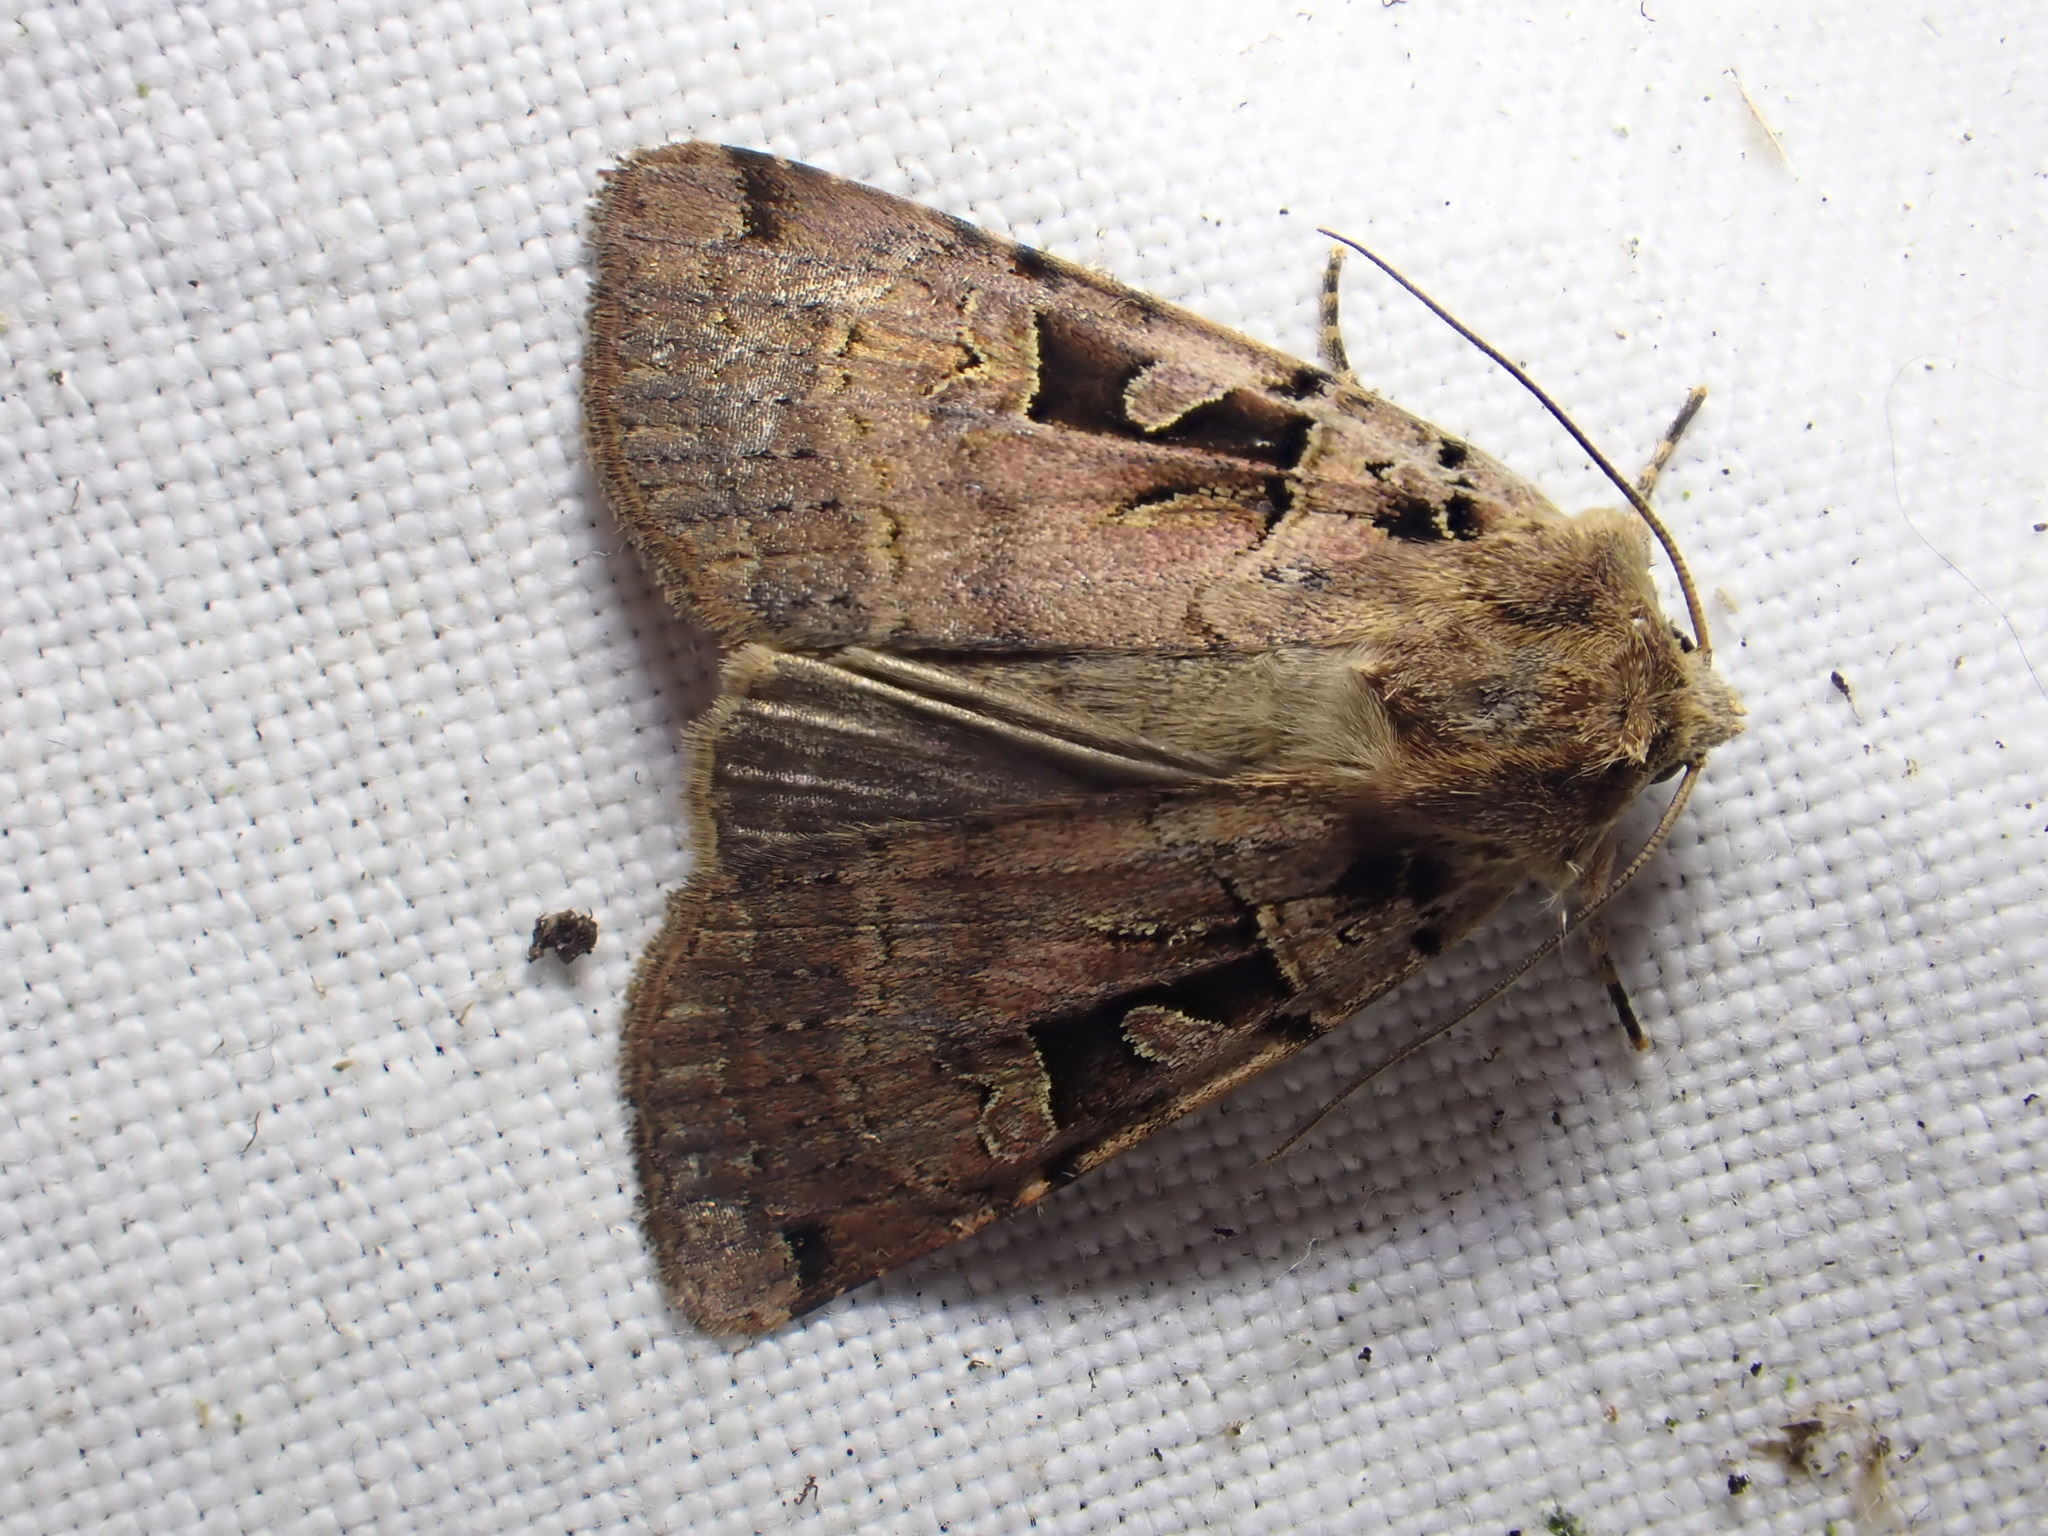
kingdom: Animalia
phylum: Arthropoda
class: Insecta
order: Lepidoptera
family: Noctuidae
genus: Xestia
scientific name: Xestia triangulum
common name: Double square-spot
